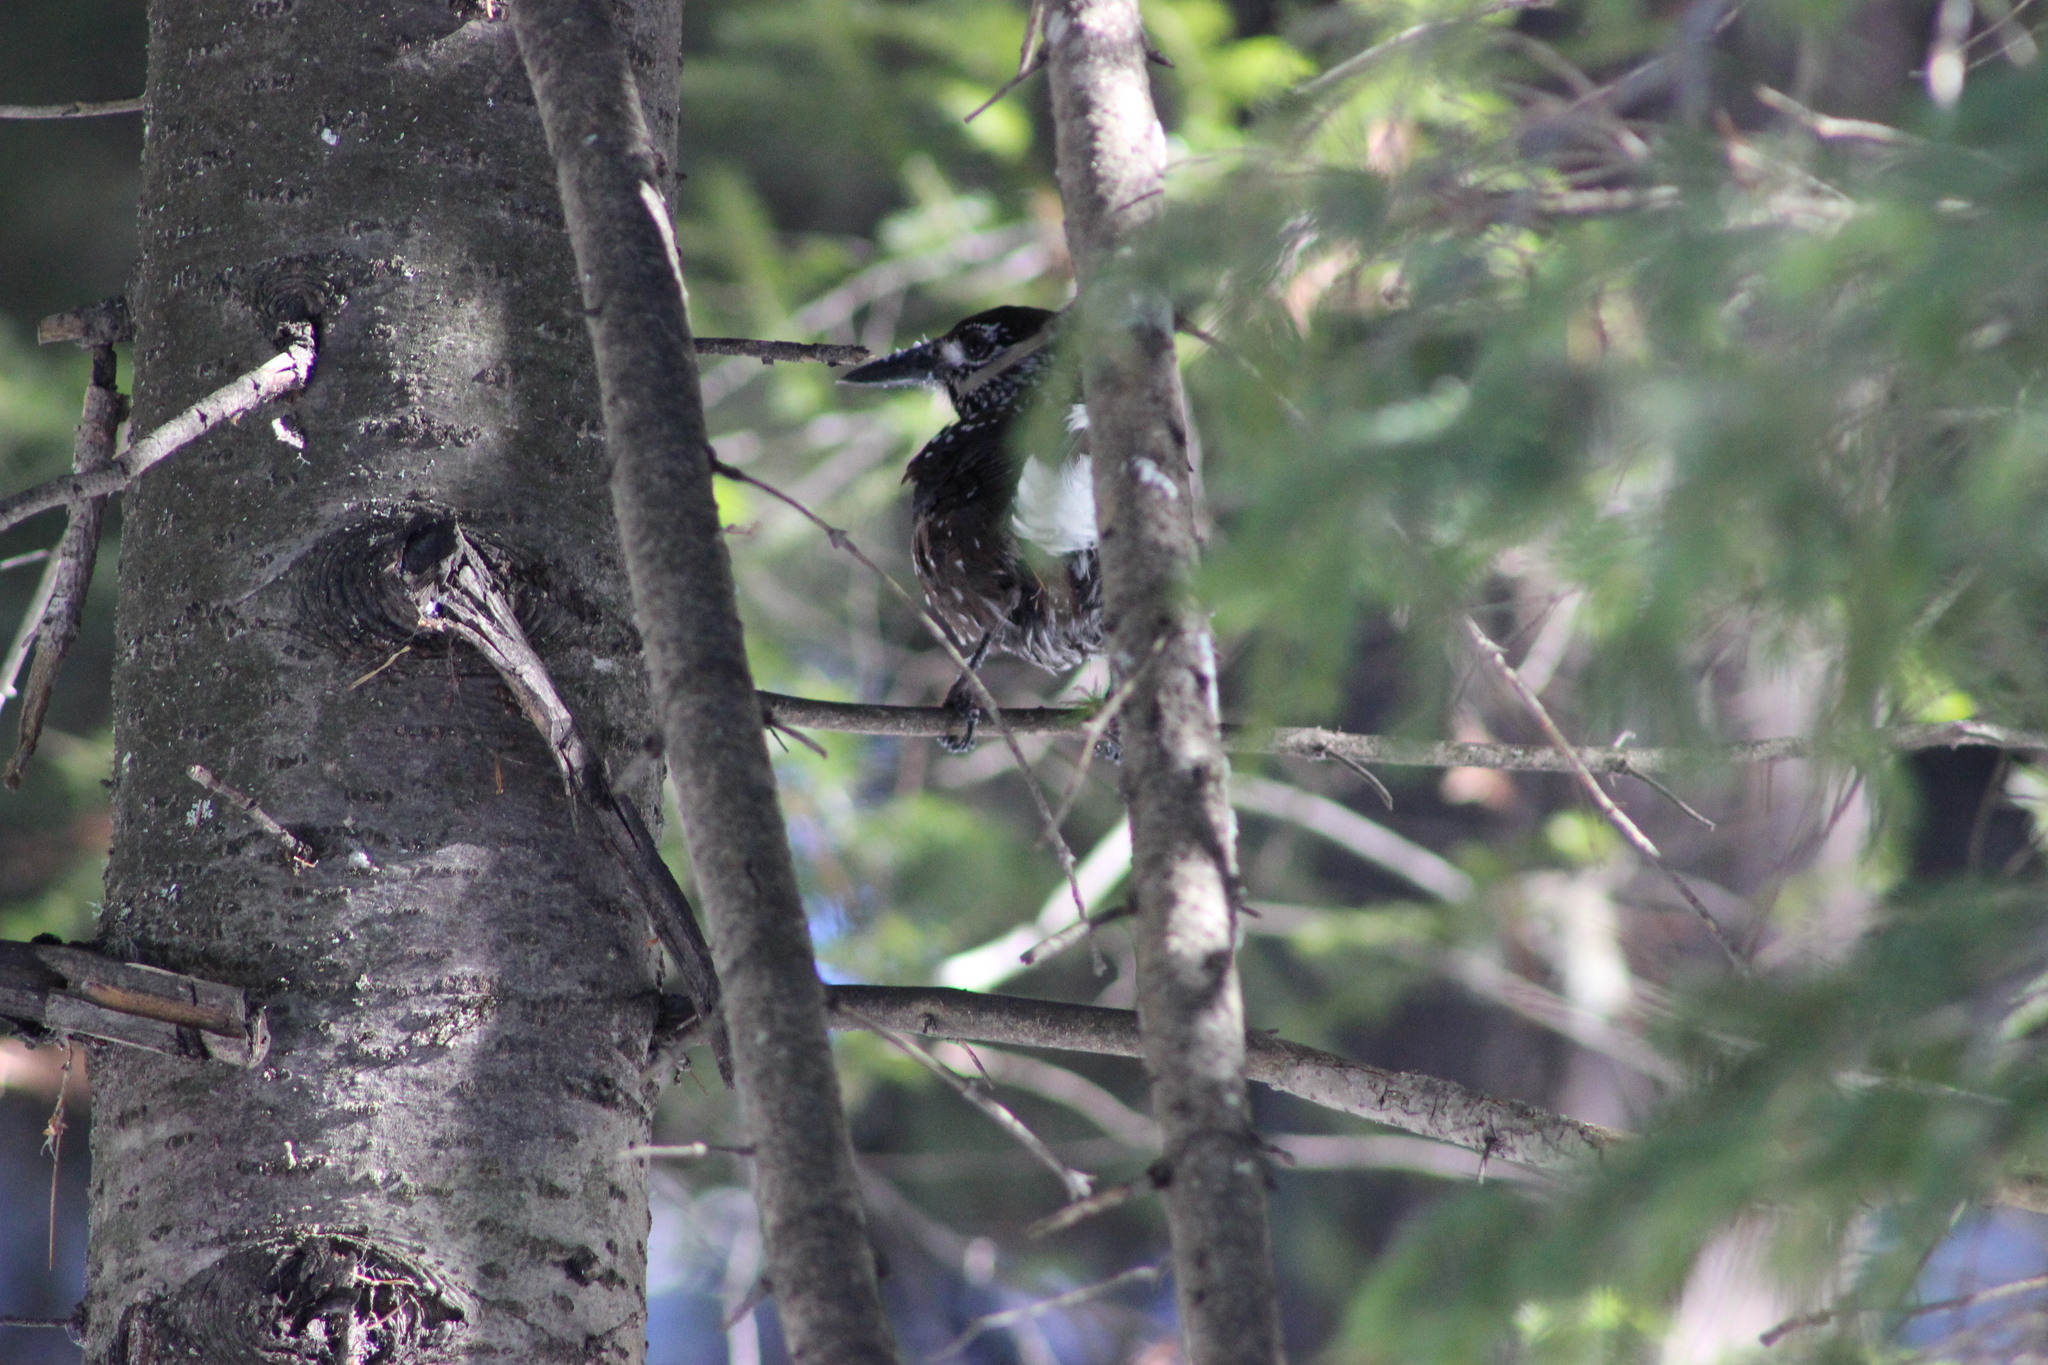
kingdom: Animalia
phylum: Chordata
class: Aves
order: Passeriformes
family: Corvidae
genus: Nucifraga
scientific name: Nucifraga caryocatactes
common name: Spotted nutcracker
